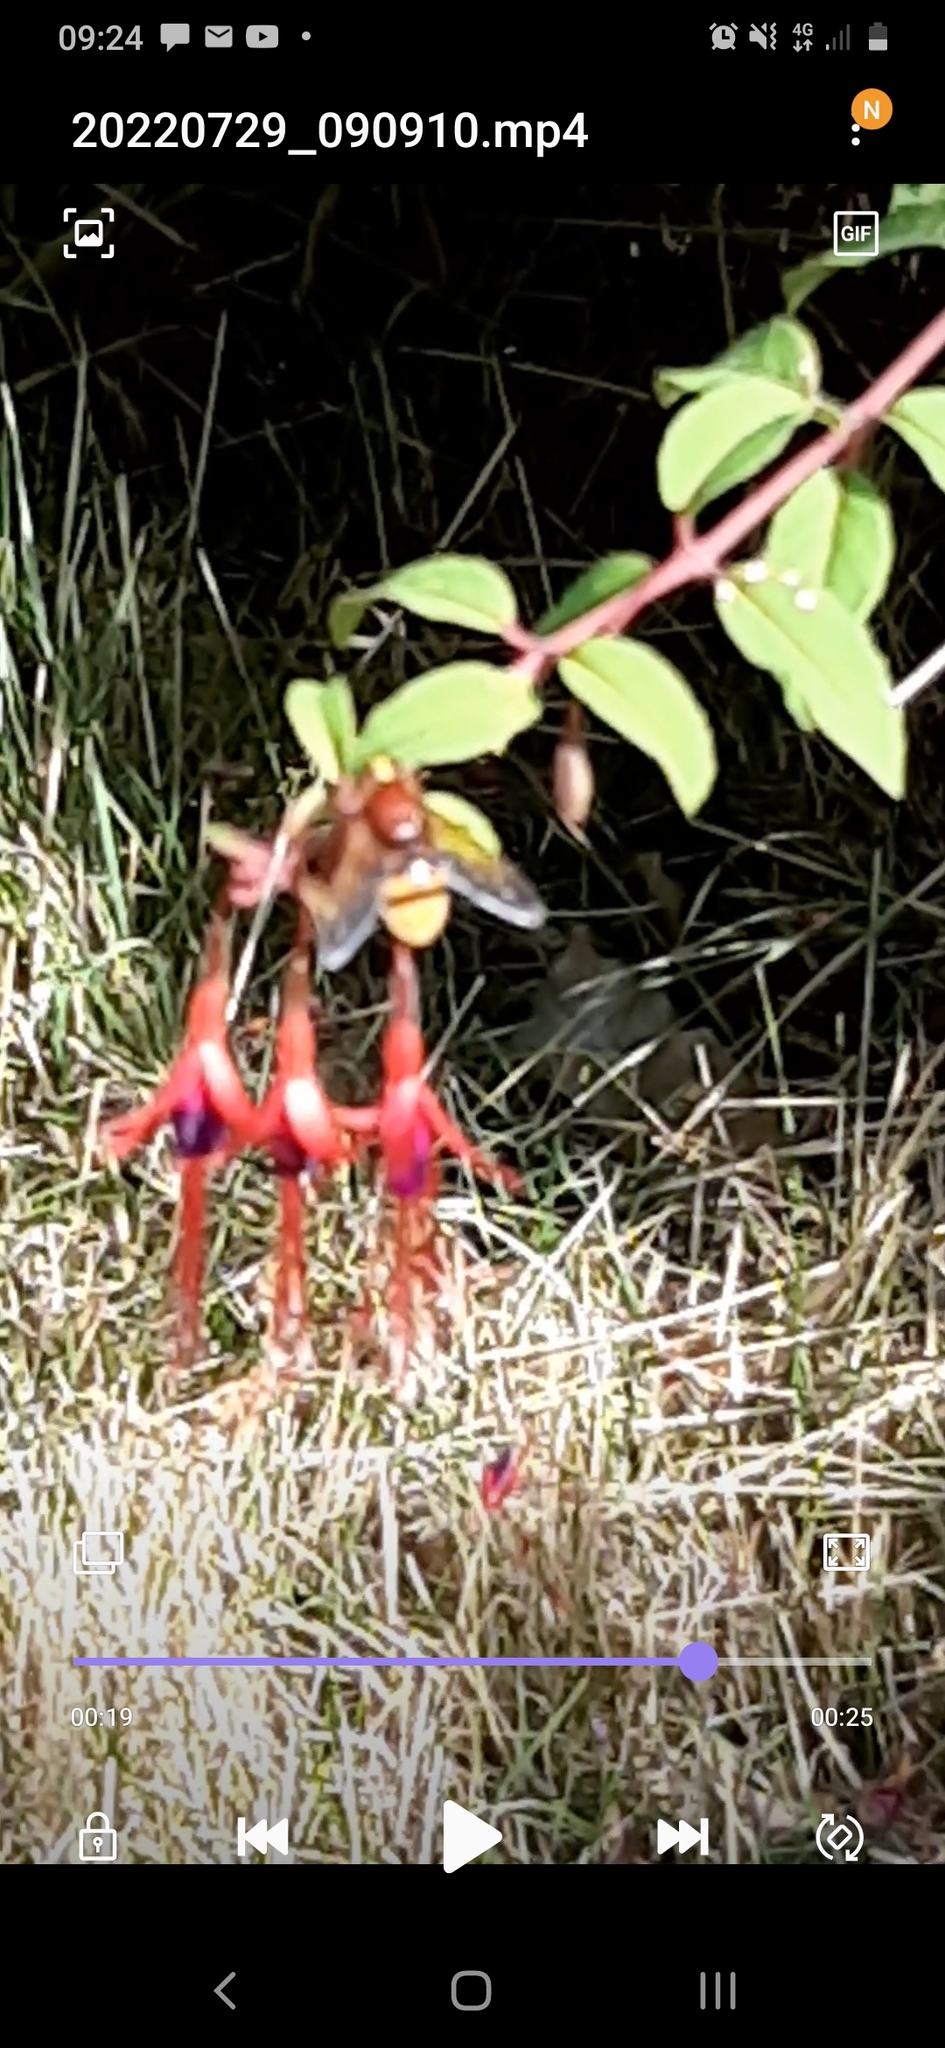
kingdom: Animalia
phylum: Arthropoda
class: Insecta
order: Diptera
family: Syrphidae
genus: Volucella
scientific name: Volucella zonaria
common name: Hornet hoverfly
